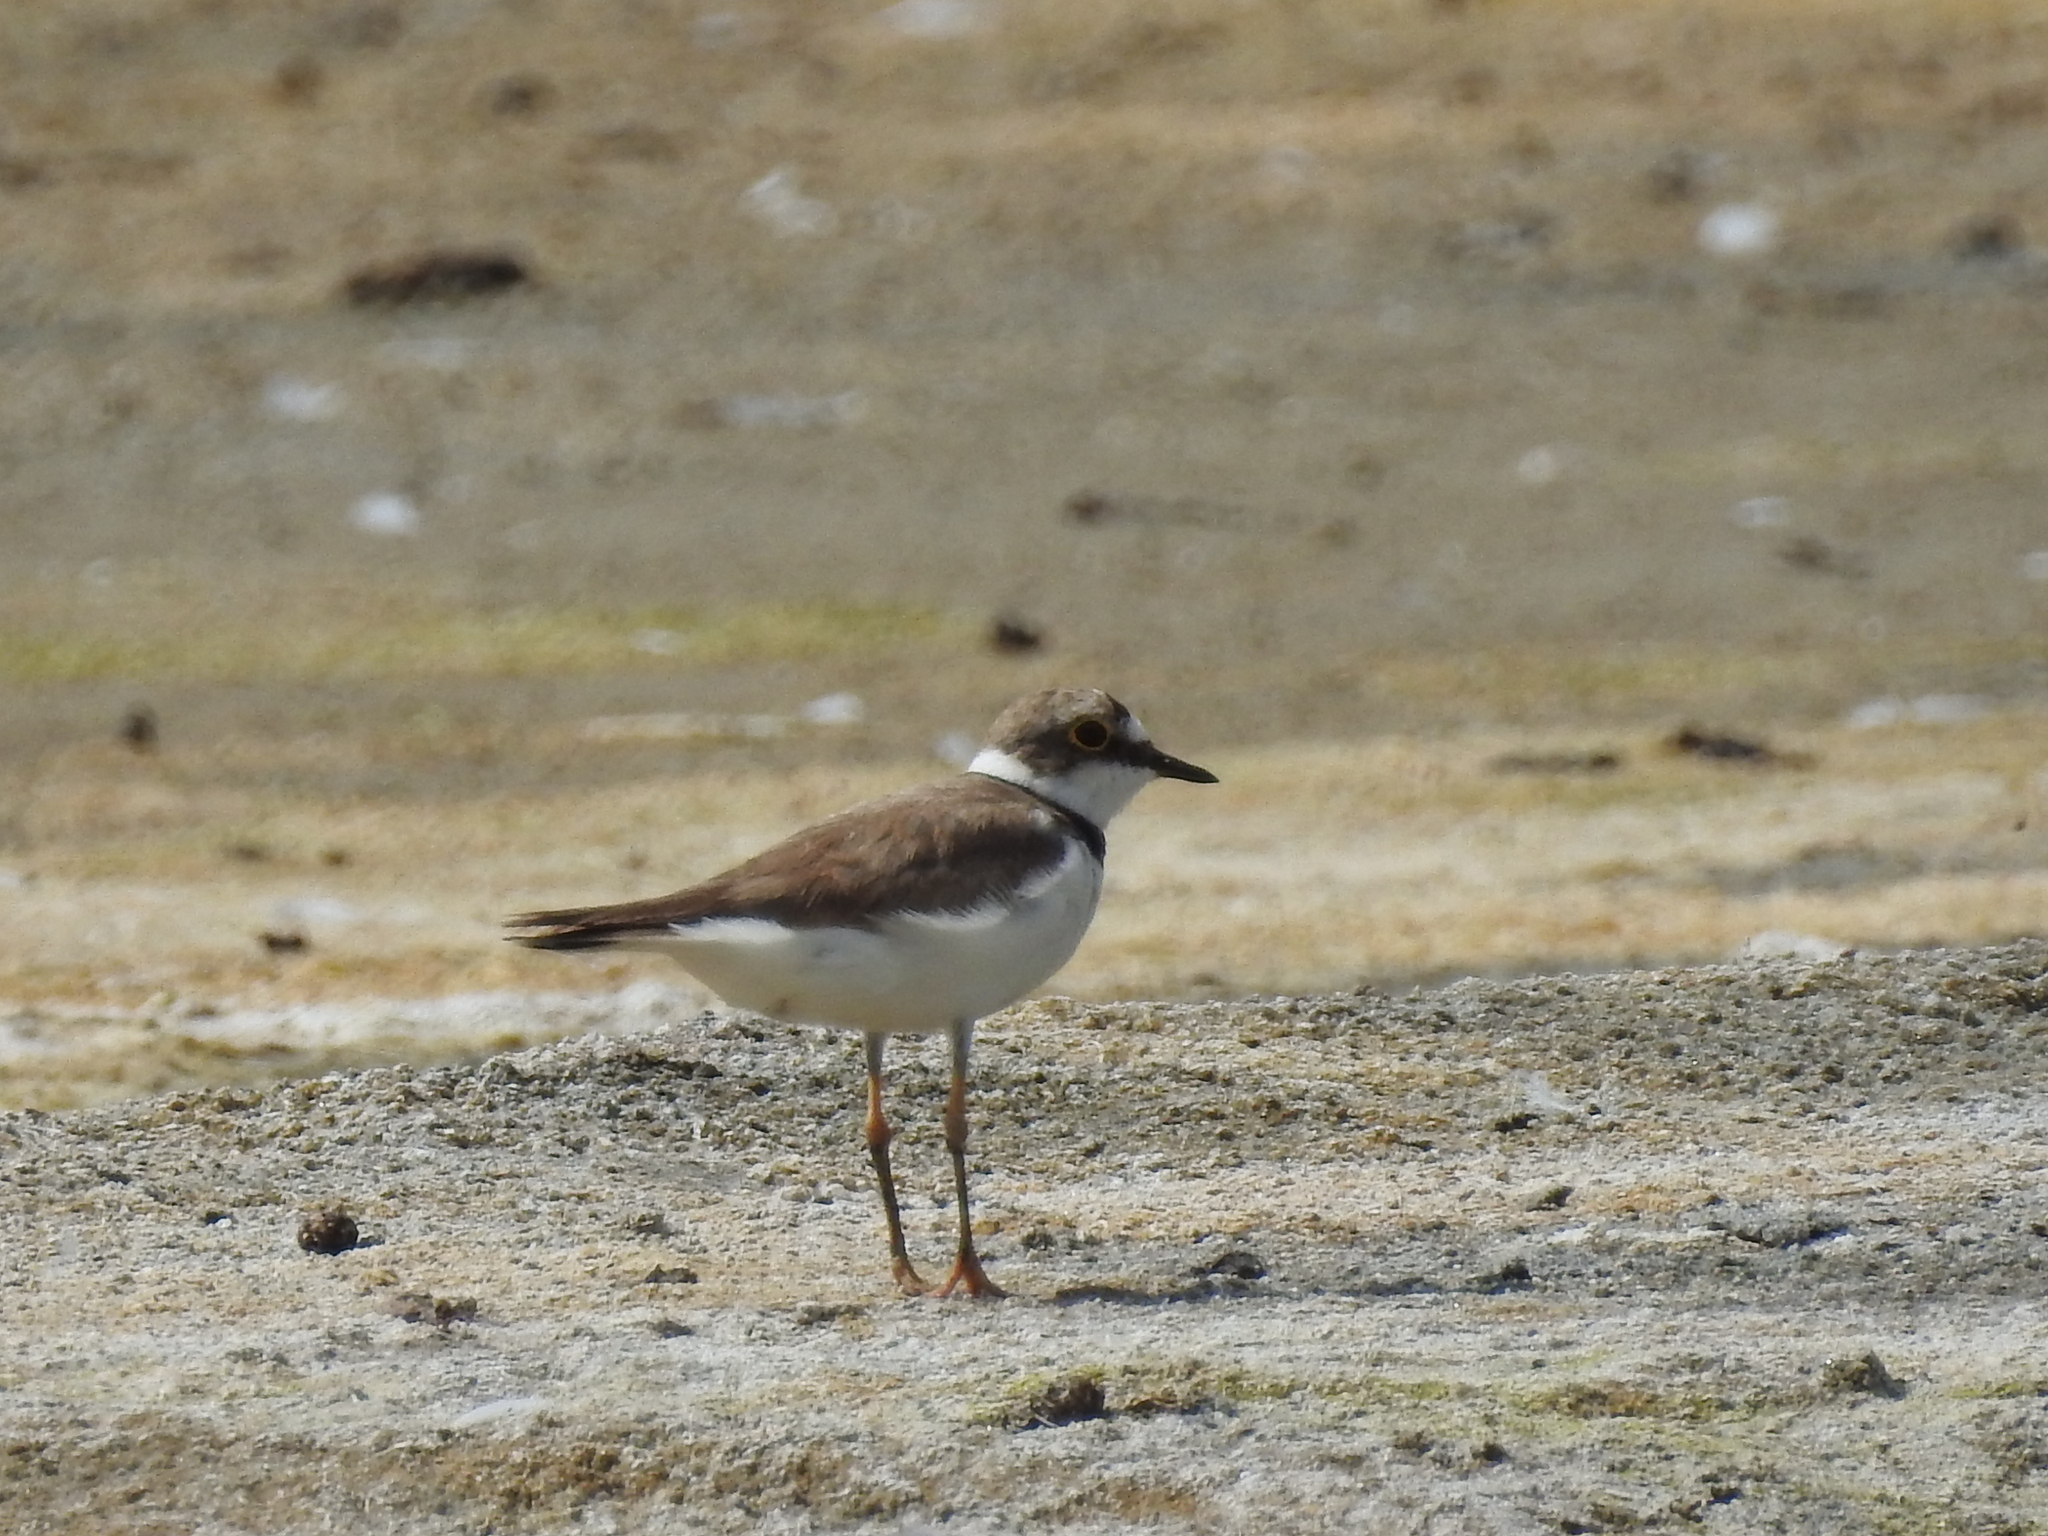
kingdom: Animalia
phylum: Chordata
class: Aves
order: Charadriiformes
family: Charadriidae
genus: Charadrius
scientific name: Charadrius dubius
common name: Little ringed plover
